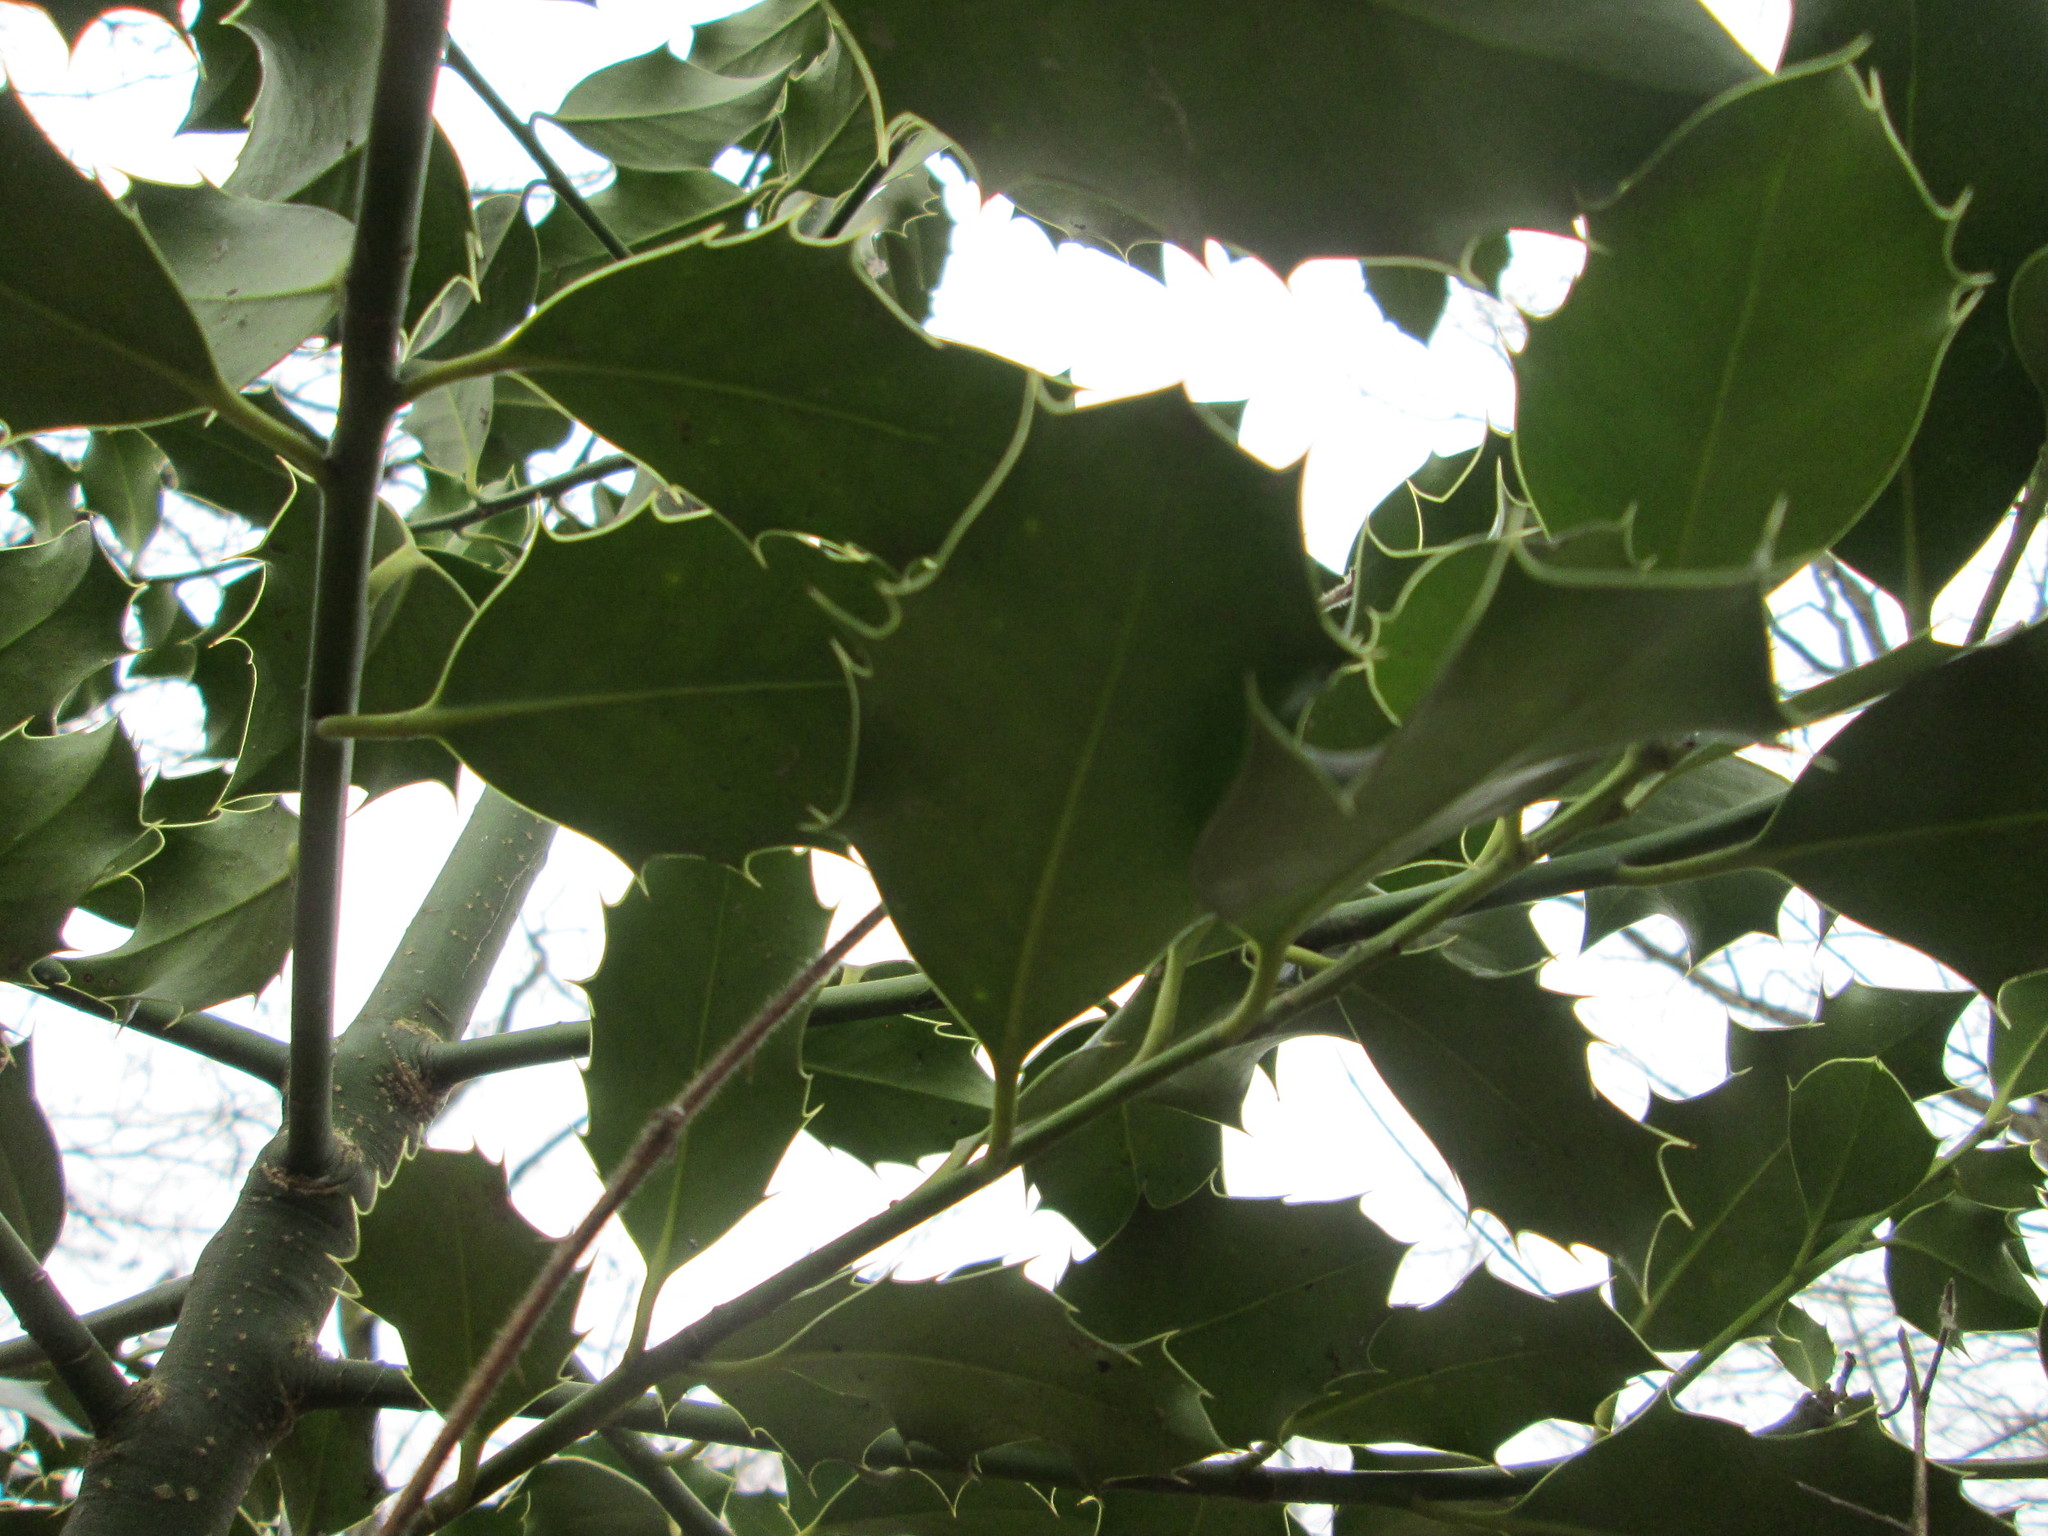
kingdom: Plantae
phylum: Tracheophyta
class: Magnoliopsida
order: Aquifoliales
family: Aquifoliaceae
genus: Ilex
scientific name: Ilex aquifolium
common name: English holly
